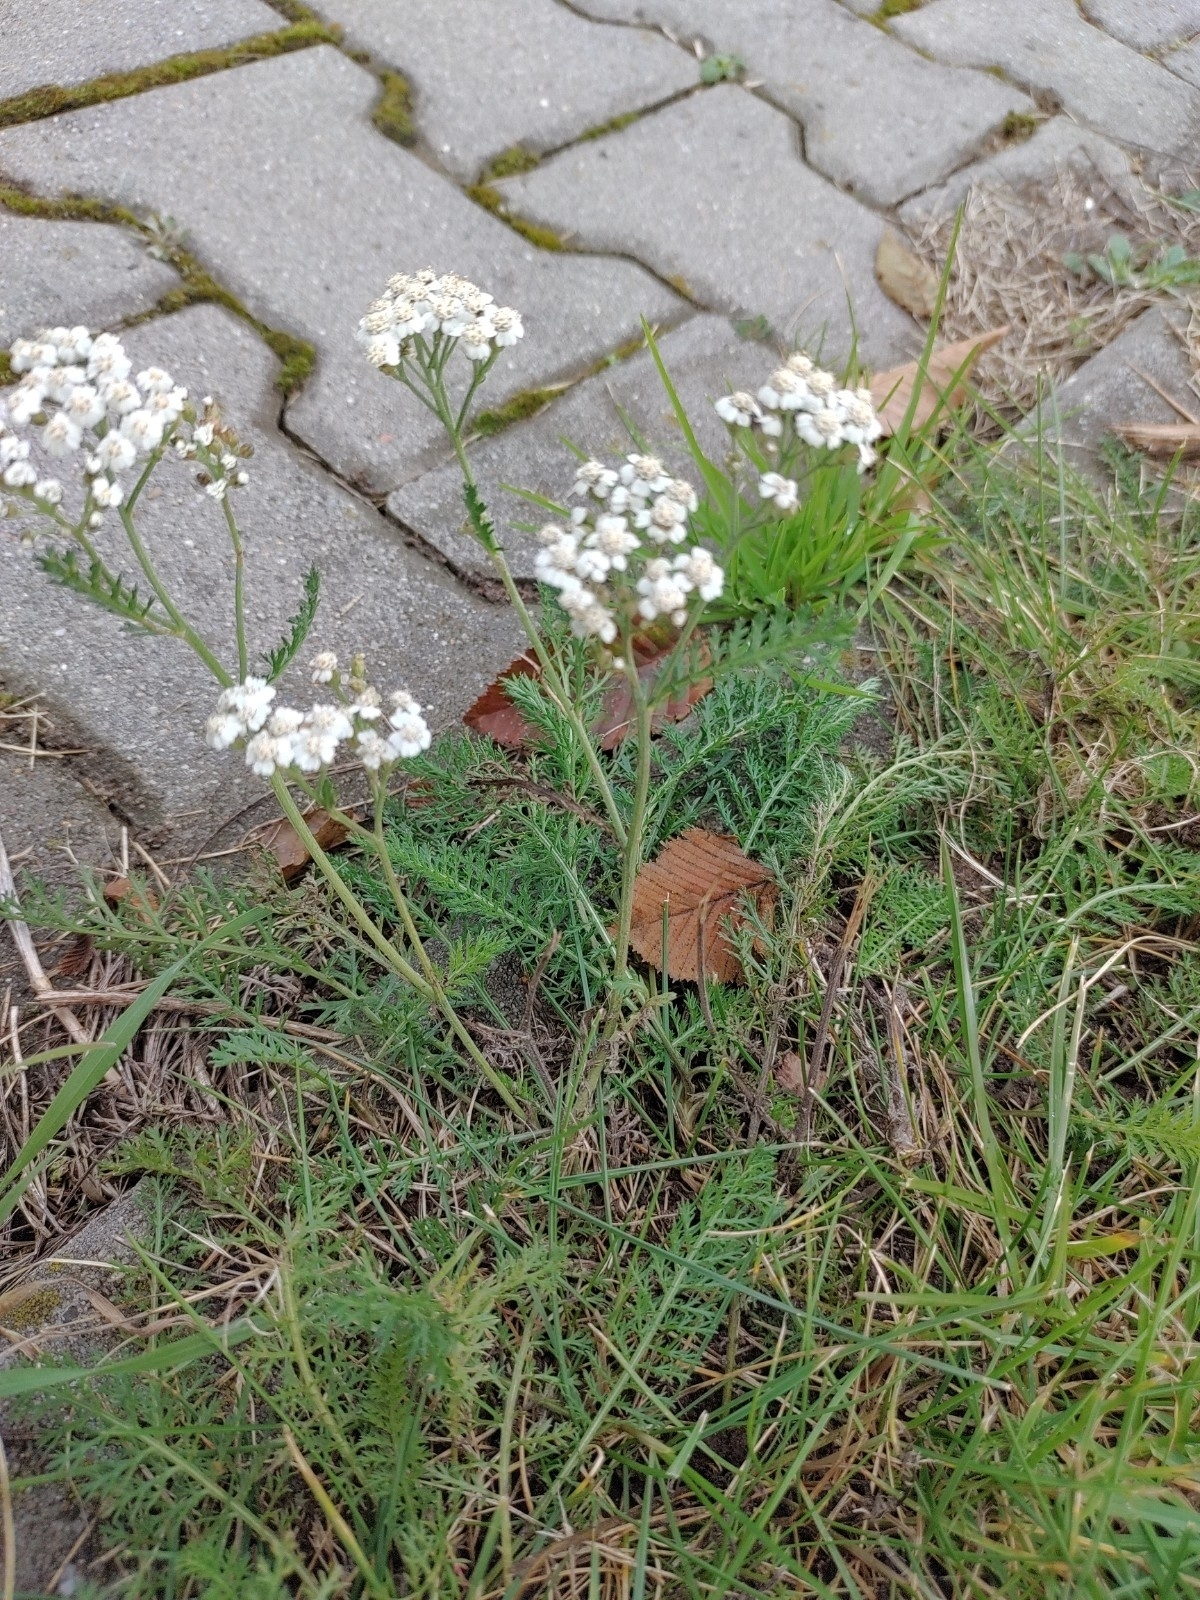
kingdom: Plantae
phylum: Tracheophyta
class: Magnoliopsida
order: Asterales
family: Asteraceae
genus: Achillea
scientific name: Achillea millefolium
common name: Yarrow
